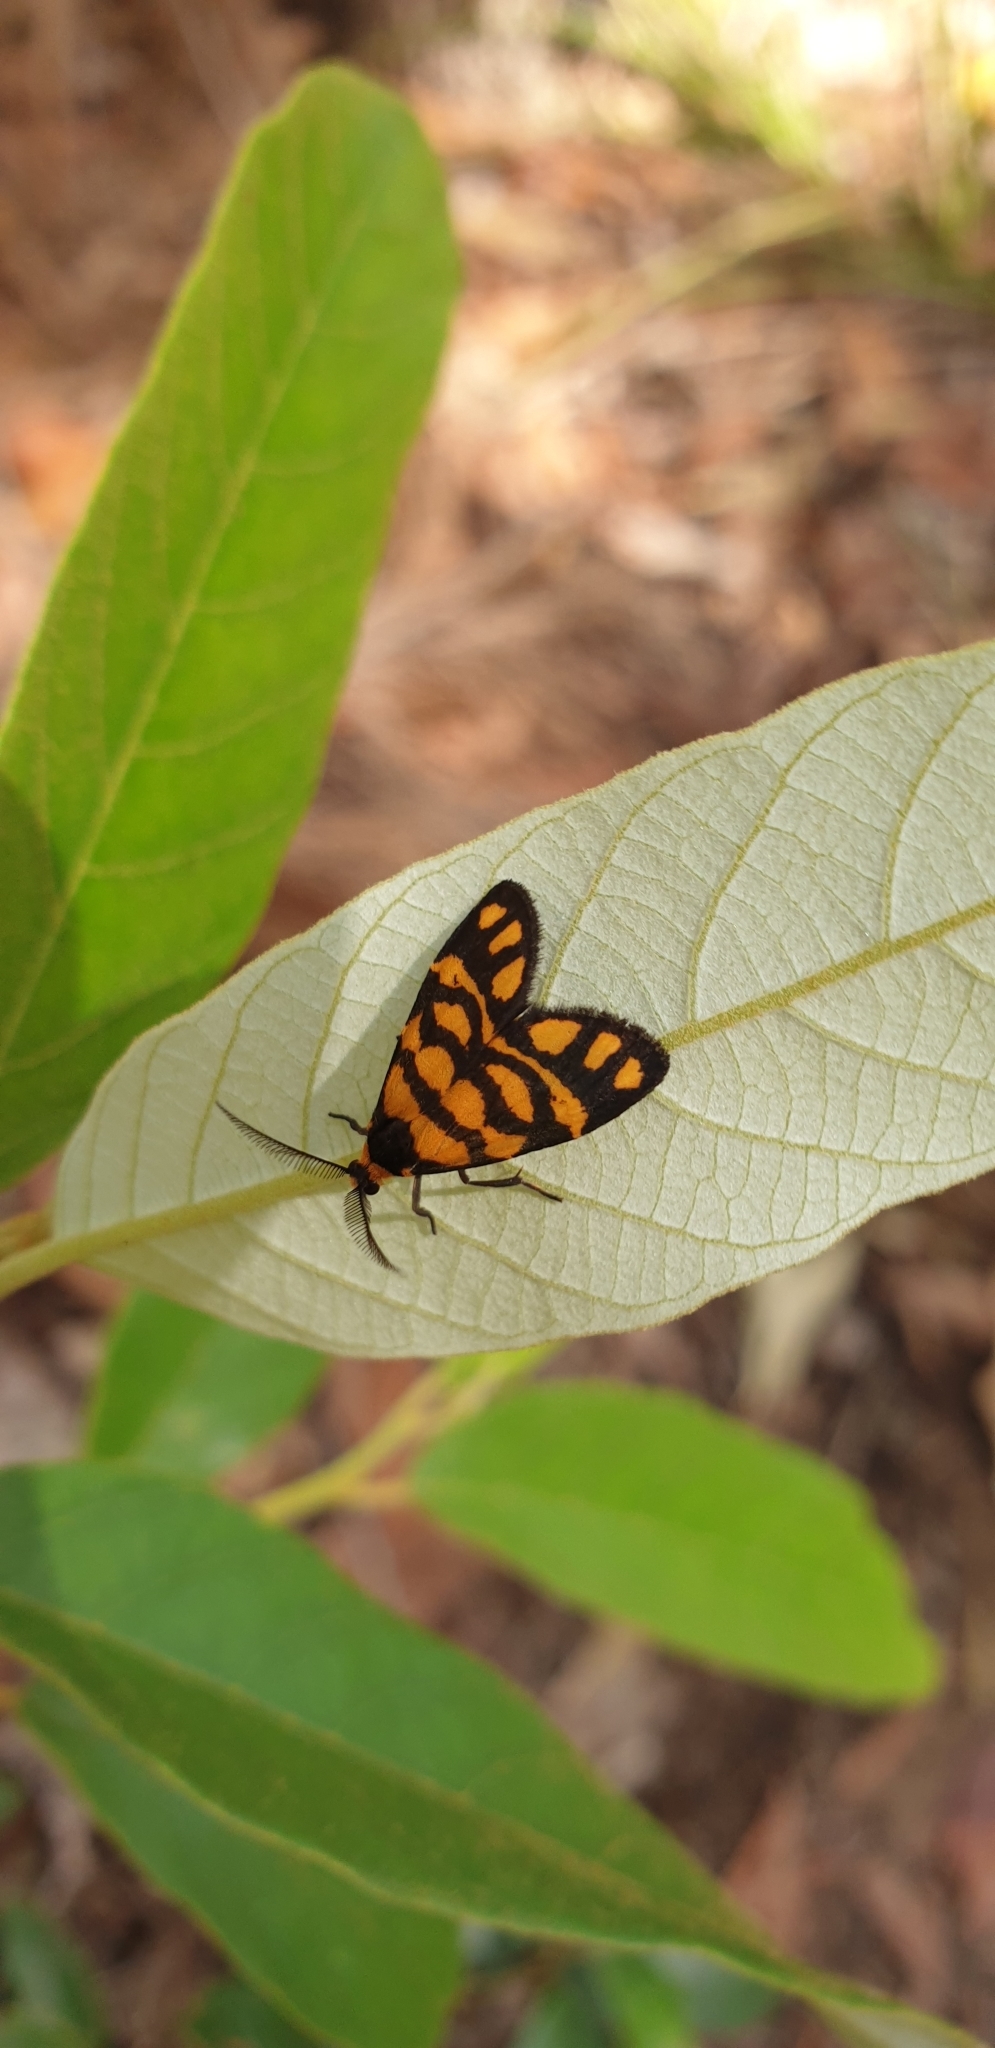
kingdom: Animalia
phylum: Arthropoda
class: Insecta
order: Lepidoptera
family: Erebidae
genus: Asura
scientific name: Asura lydia
